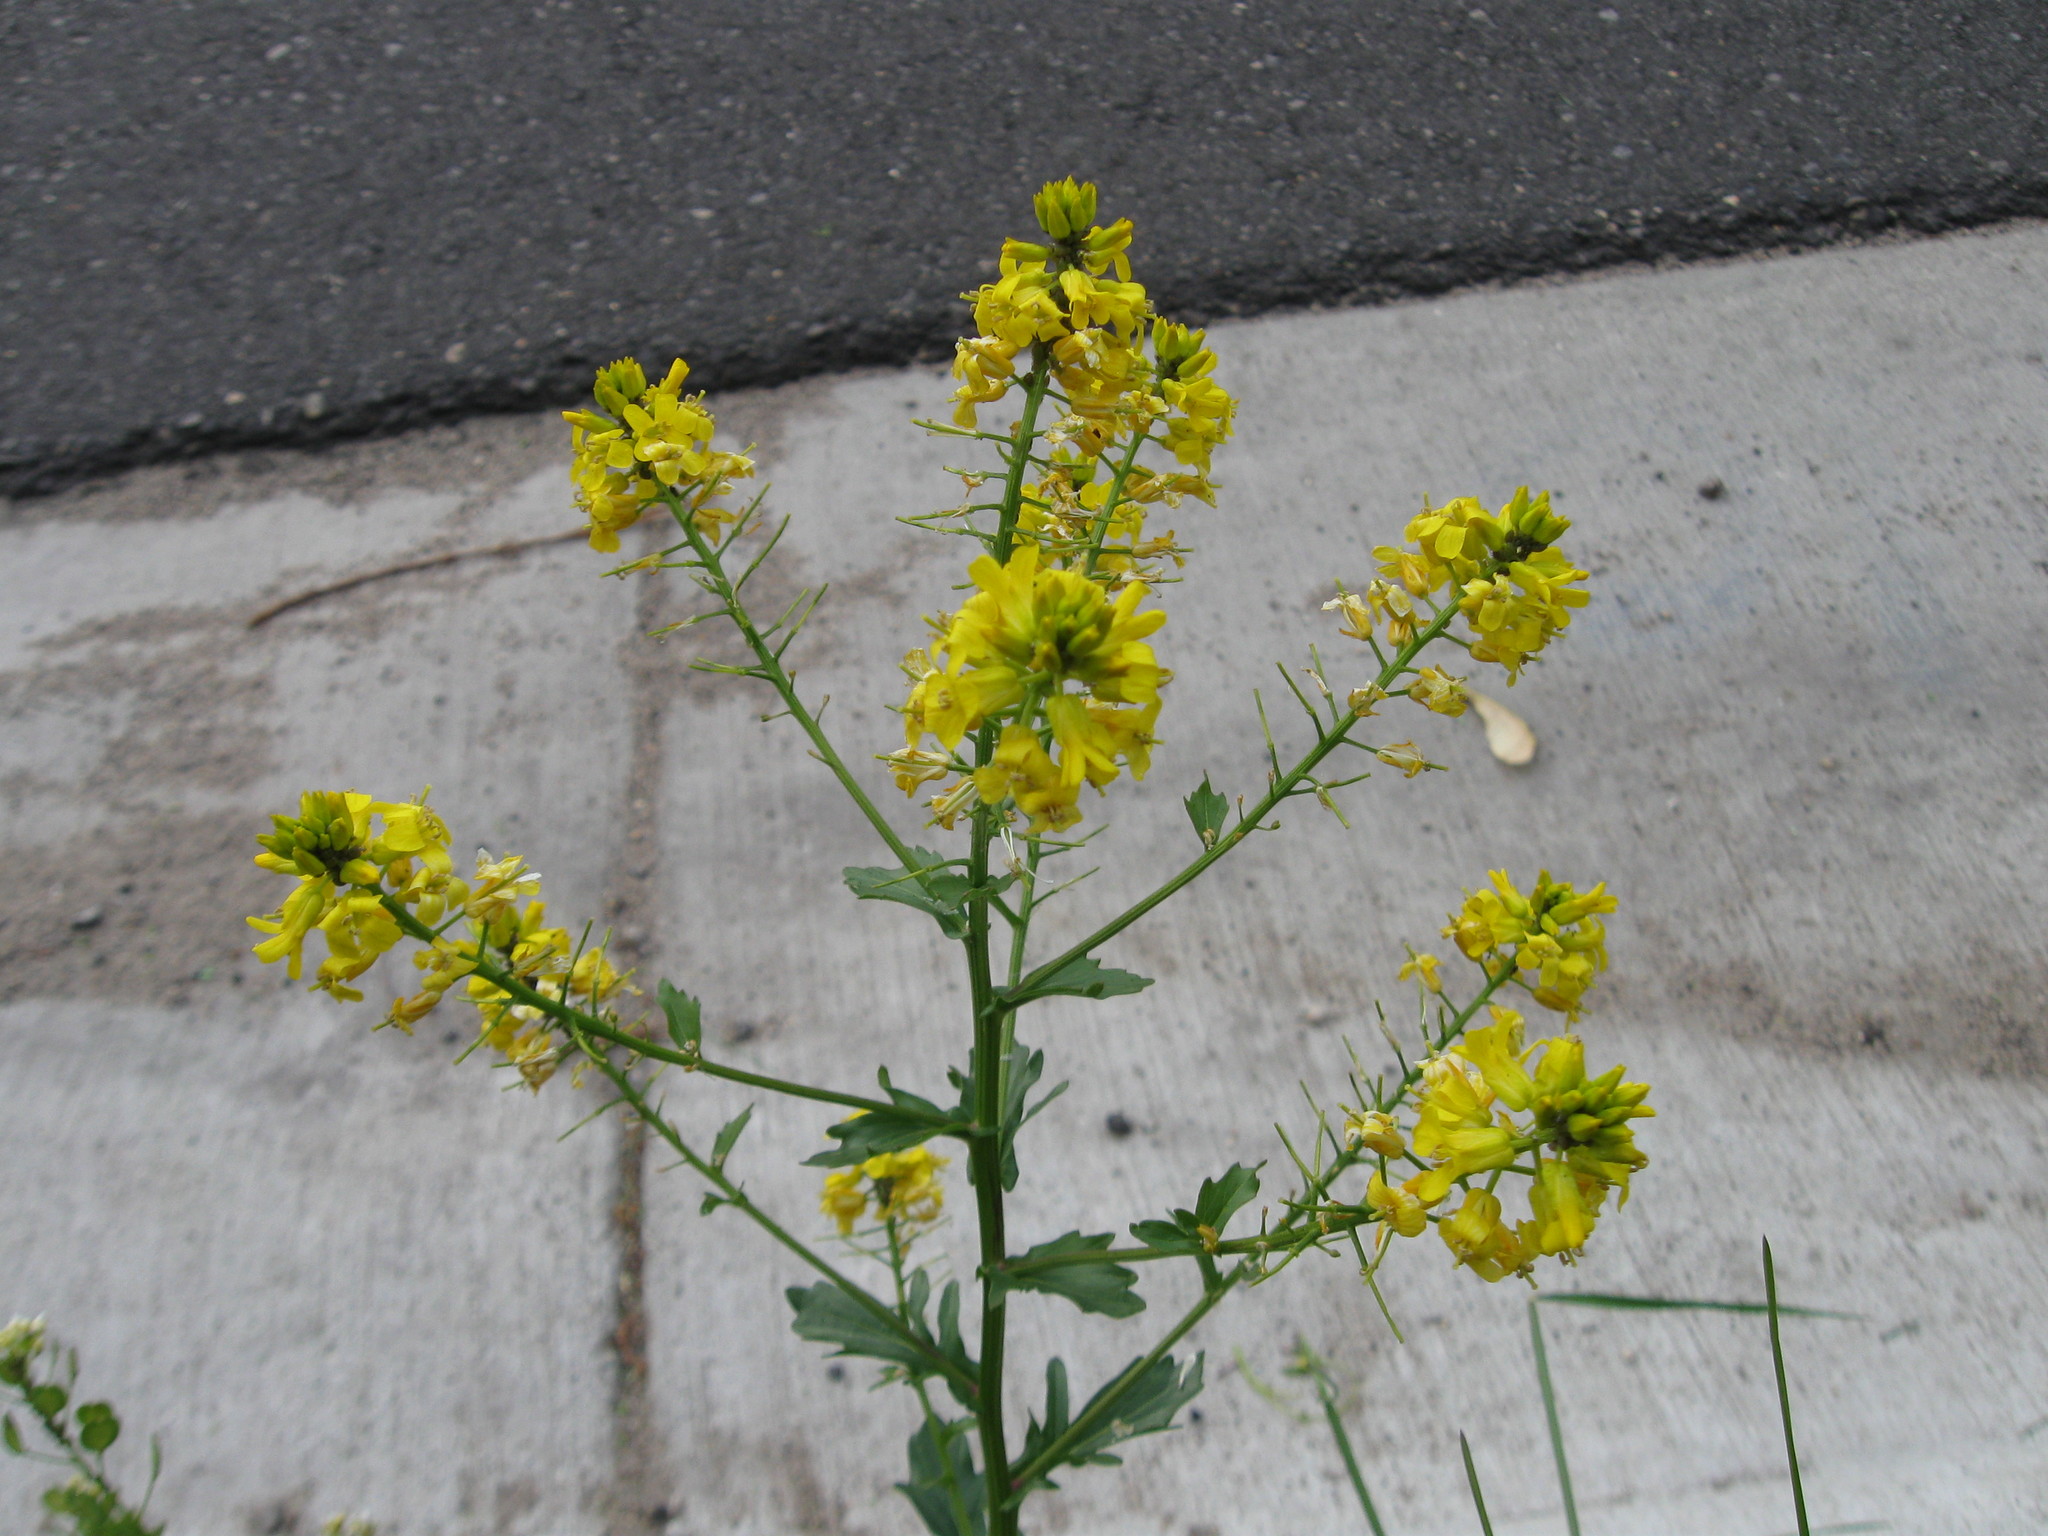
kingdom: Plantae
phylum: Tracheophyta
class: Magnoliopsida
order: Brassicales
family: Brassicaceae
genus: Barbarea
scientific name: Barbarea vulgaris
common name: Cressy-greens
